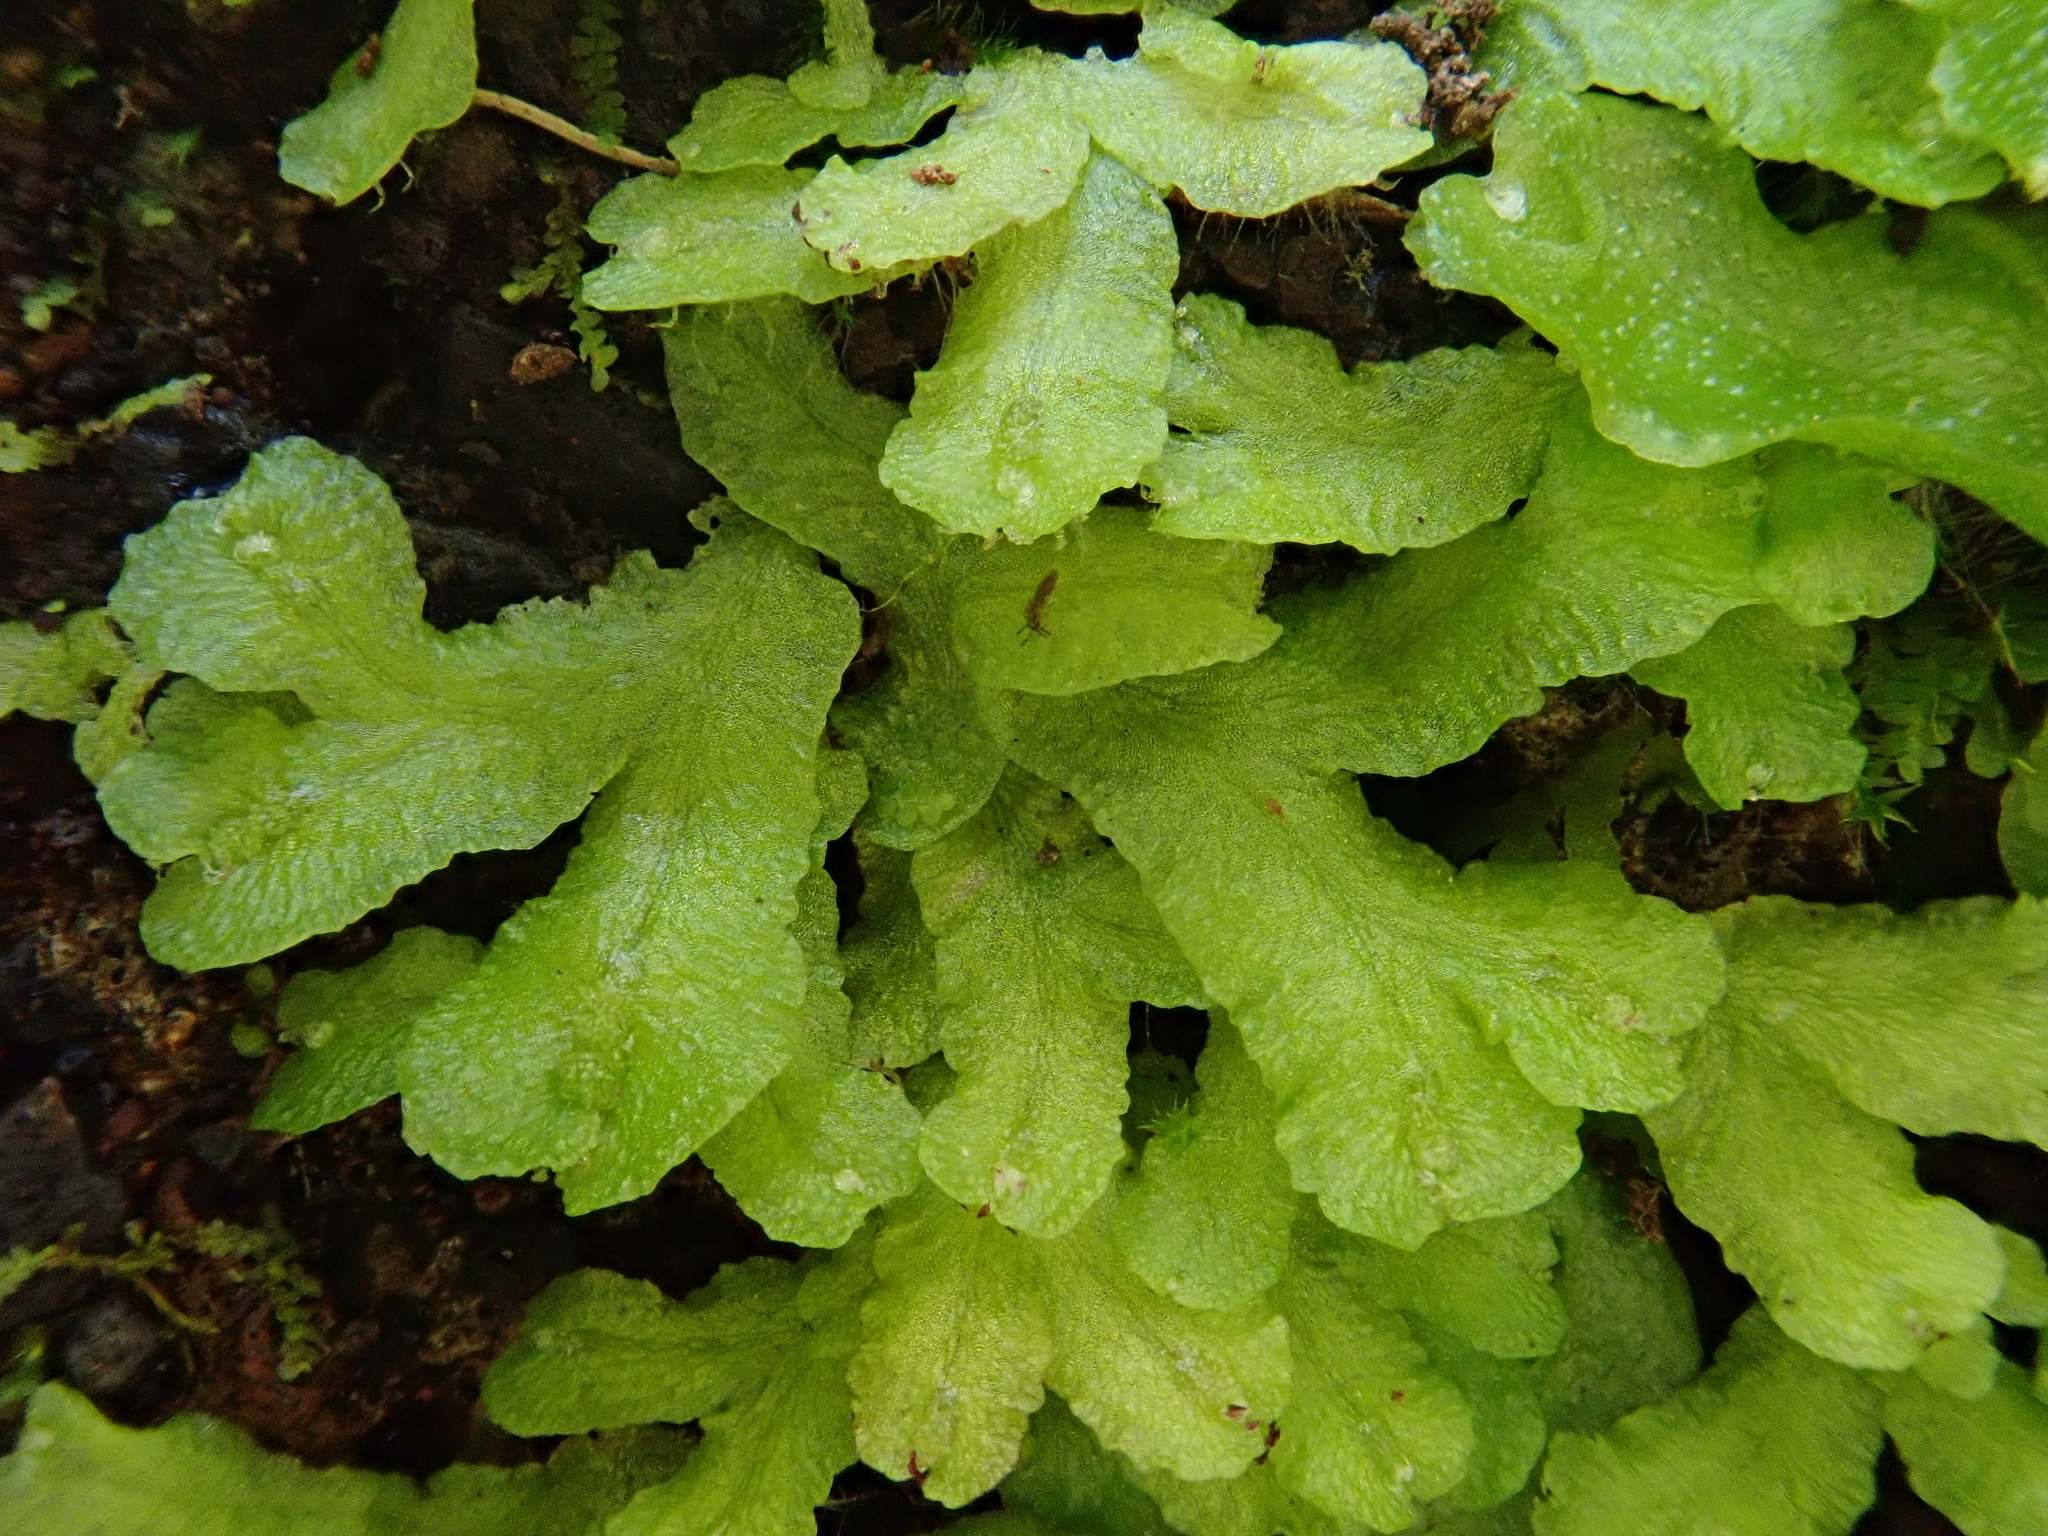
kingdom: Plantae
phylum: Marchantiophyta
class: Marchantiopsida
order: Marchantiales
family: Aytoniaceae
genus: Asterella
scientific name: Asterella africana
